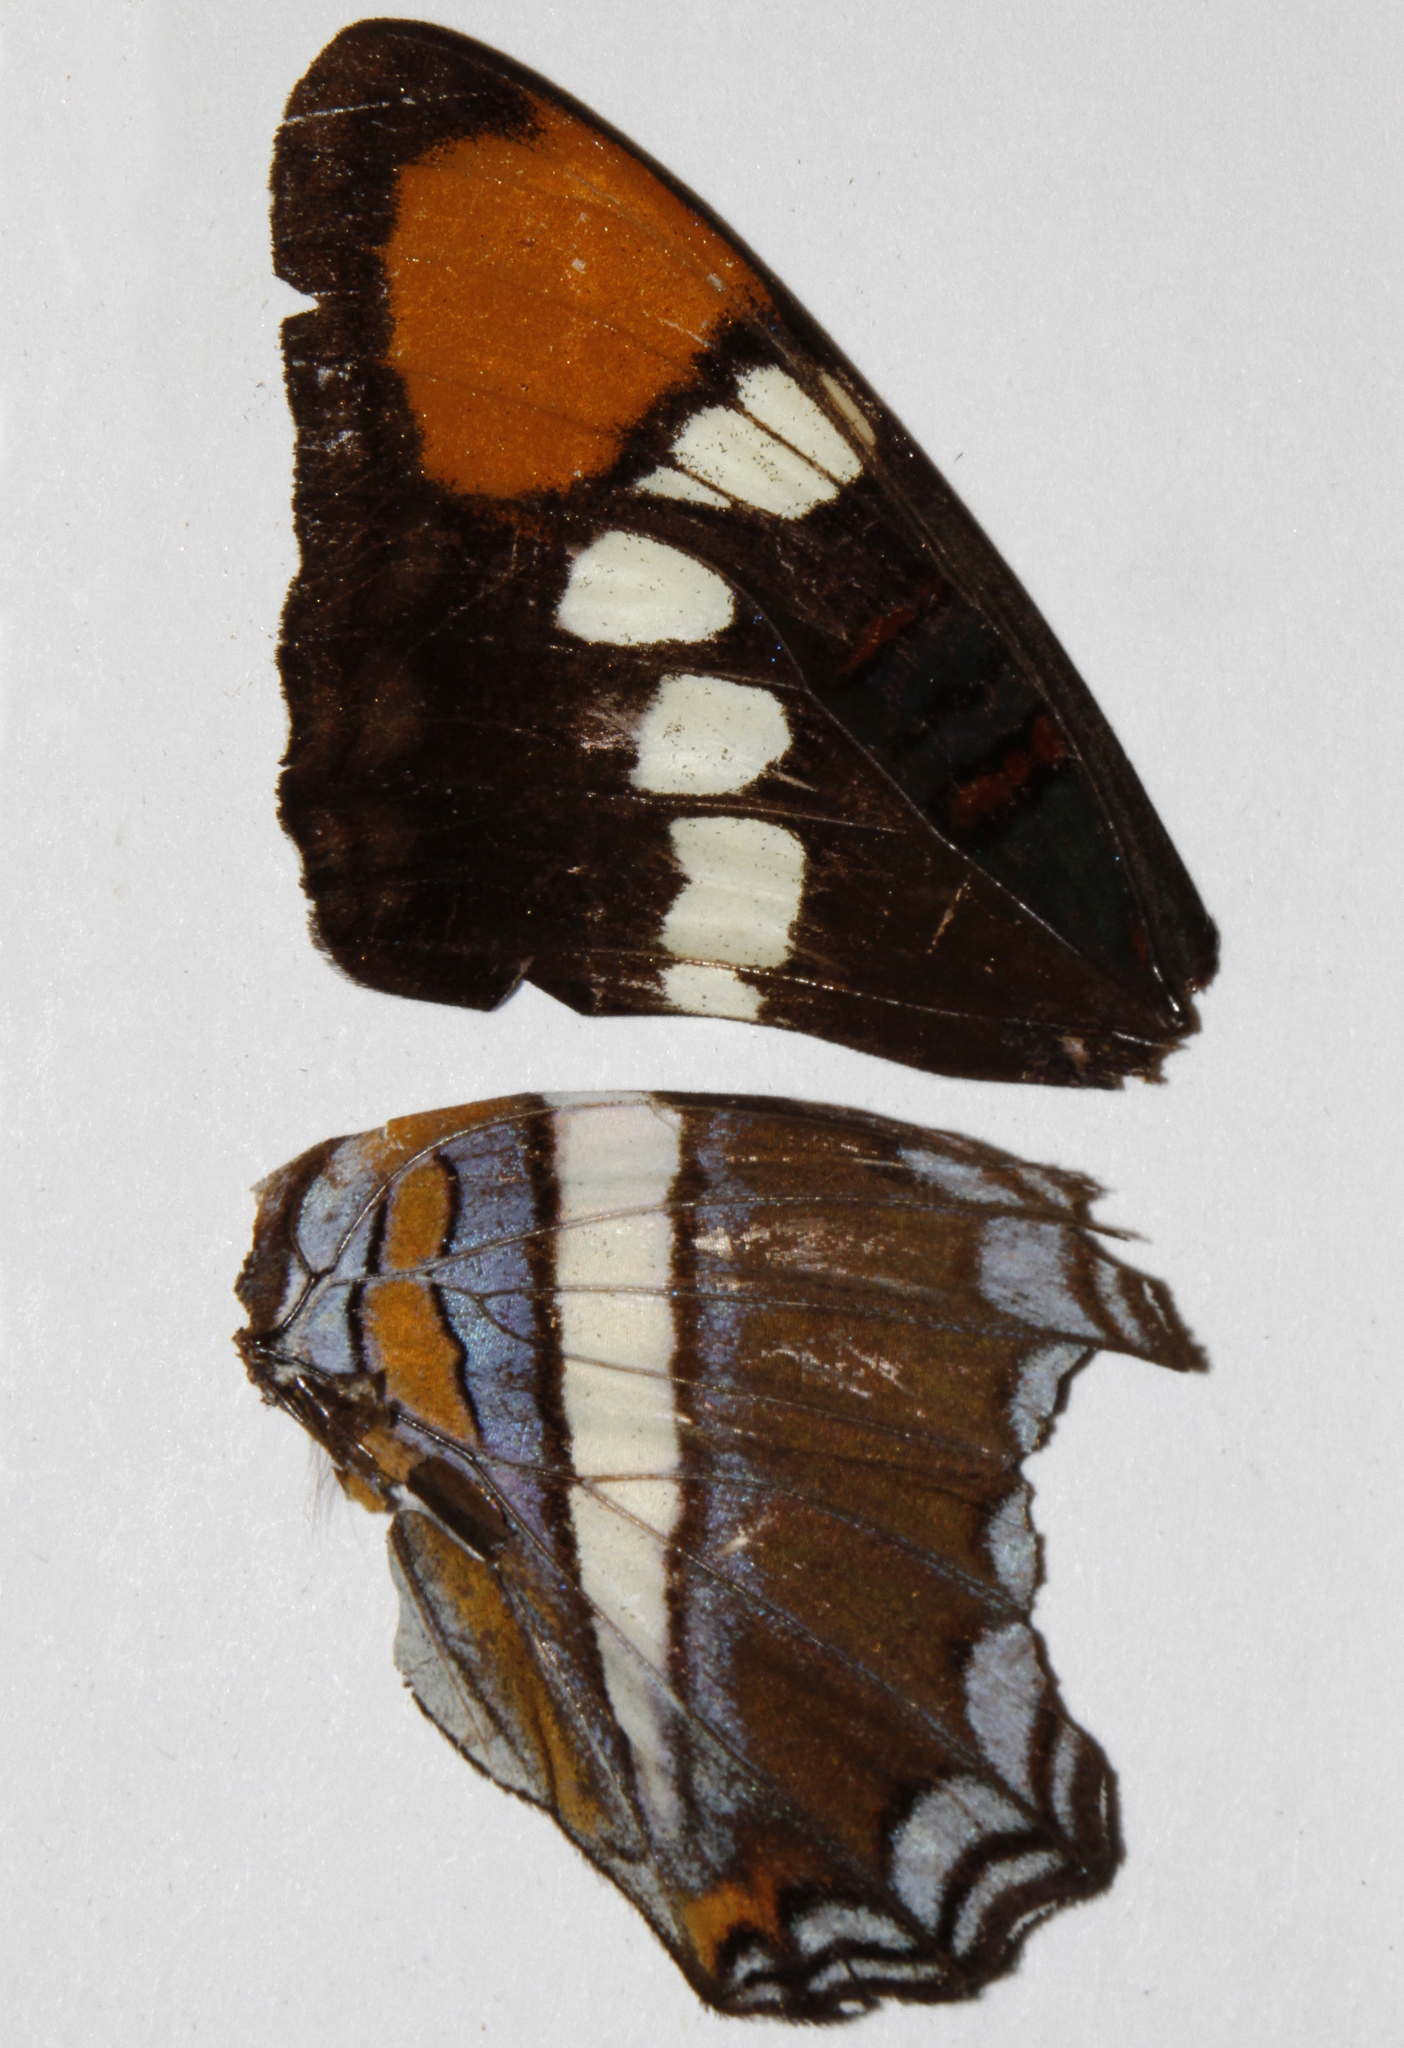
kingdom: Animalia
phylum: Arthropoda
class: Insecta
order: Lepidoptera
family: Nymphalidae
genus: Limenitis
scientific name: Limenitis bredowii
